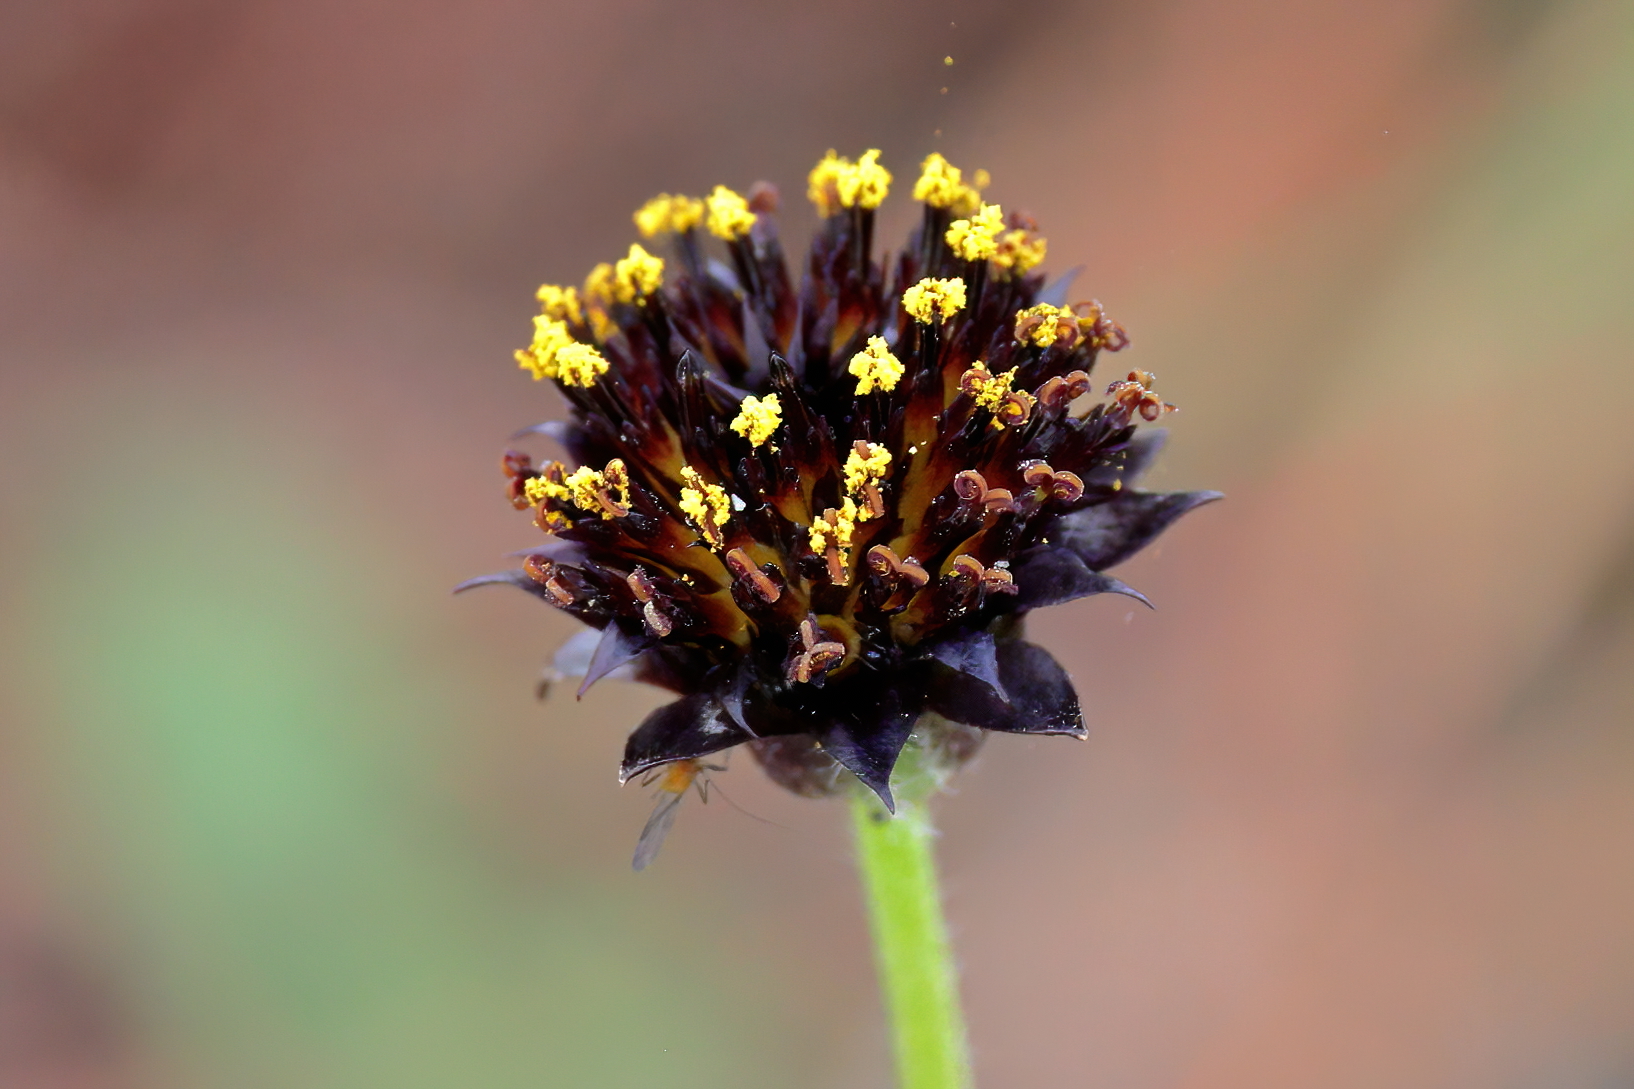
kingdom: Plantae
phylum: Tracheophyta
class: Magnoliopsida
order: Asterales
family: Asteraceae
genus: Helianthus
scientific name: Helianthus radula
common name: Pineland sunflower
